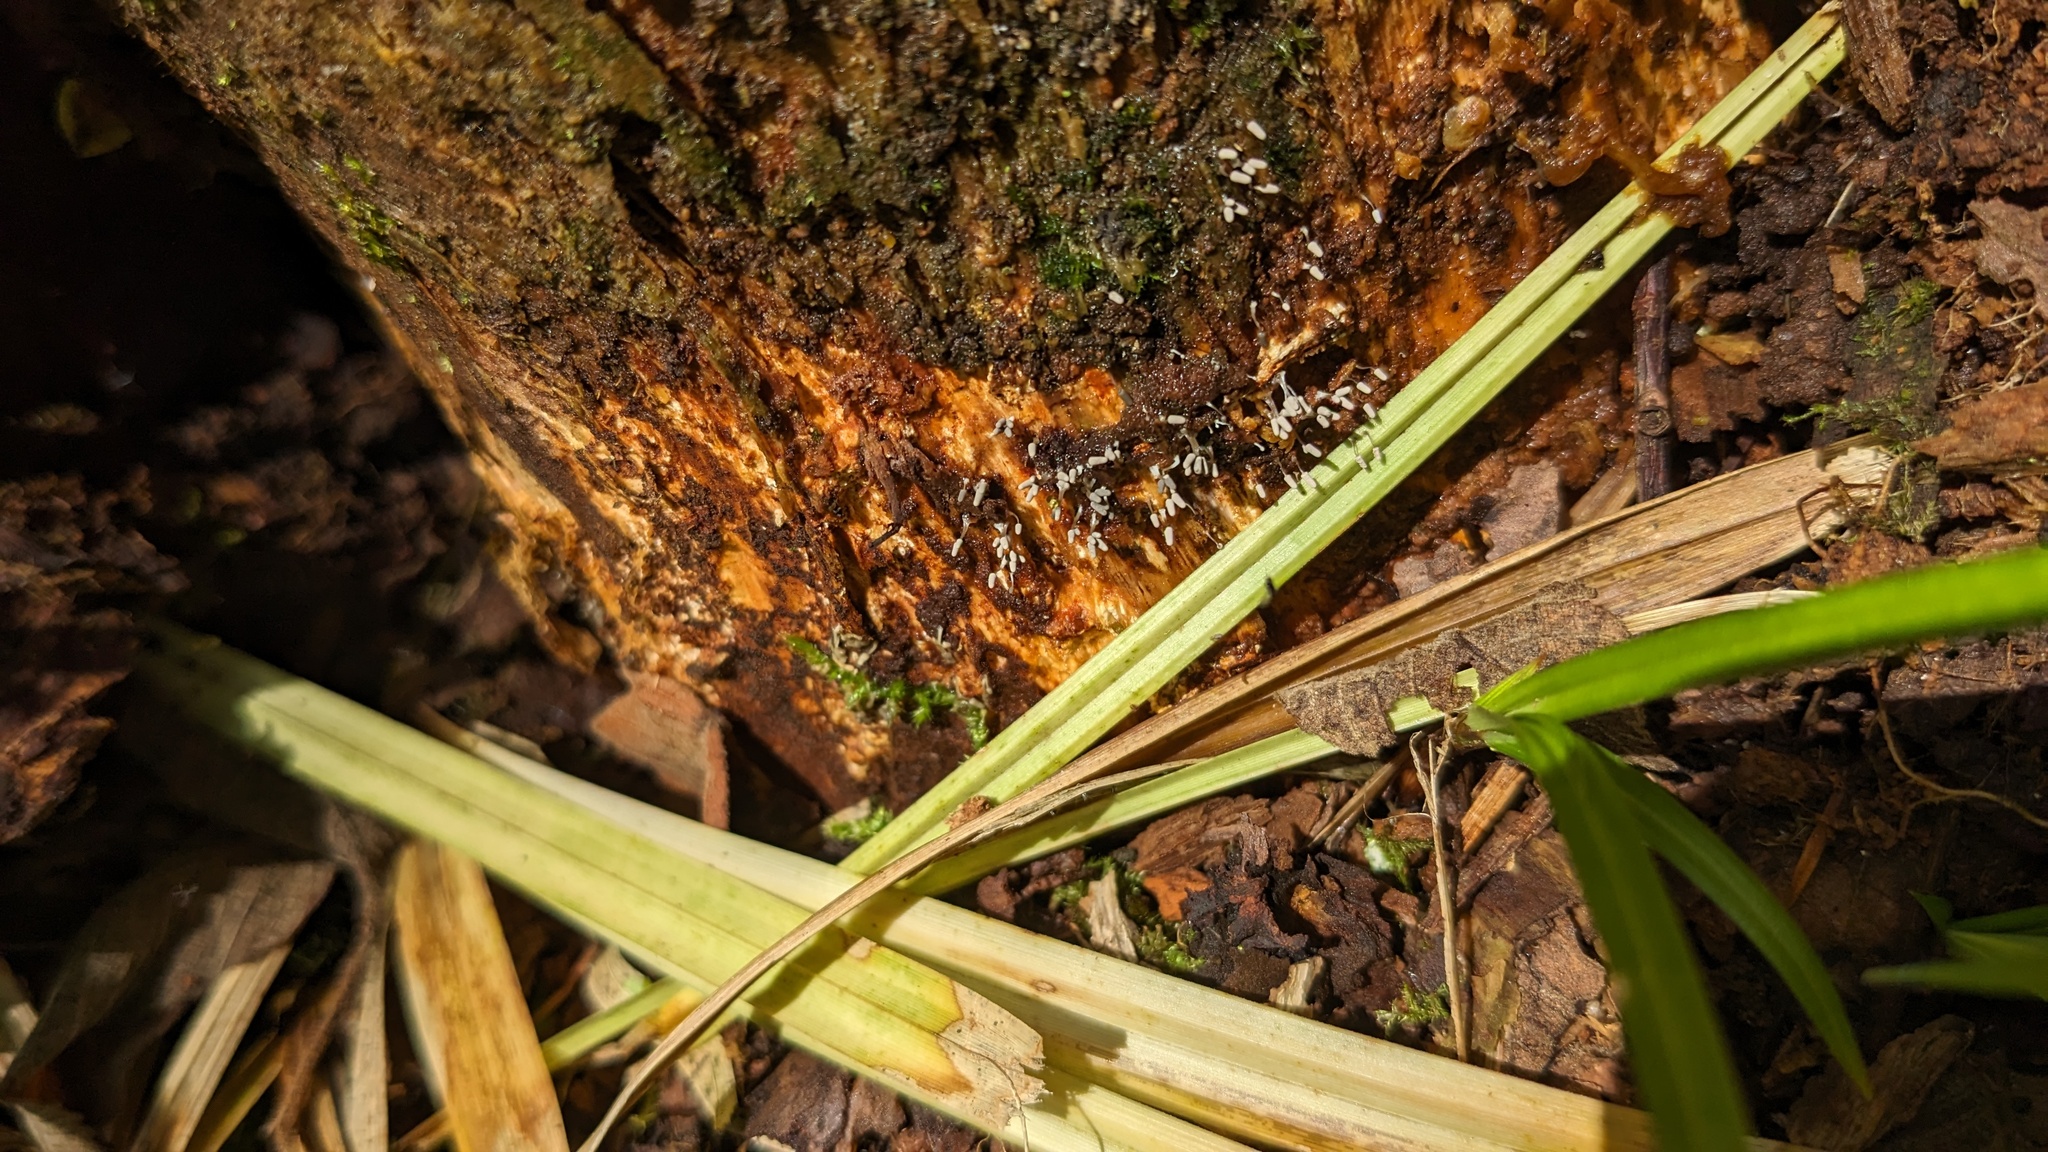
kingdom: Protozoa
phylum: Mycetozoa
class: Myxomycetes
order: Trichiales
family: Arcyriaceae
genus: Arcyria
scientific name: Arcyria cinerea
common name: White carnival candy slime mold
